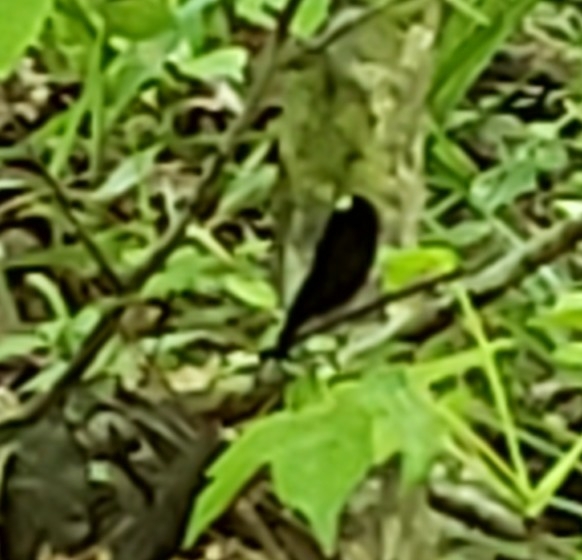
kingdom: Animalia
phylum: Arthropoda
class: Insecta
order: Odonata
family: Calopterygidae
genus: Calopteryx
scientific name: Calopteryx maculata
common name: Ebony jewelwing
